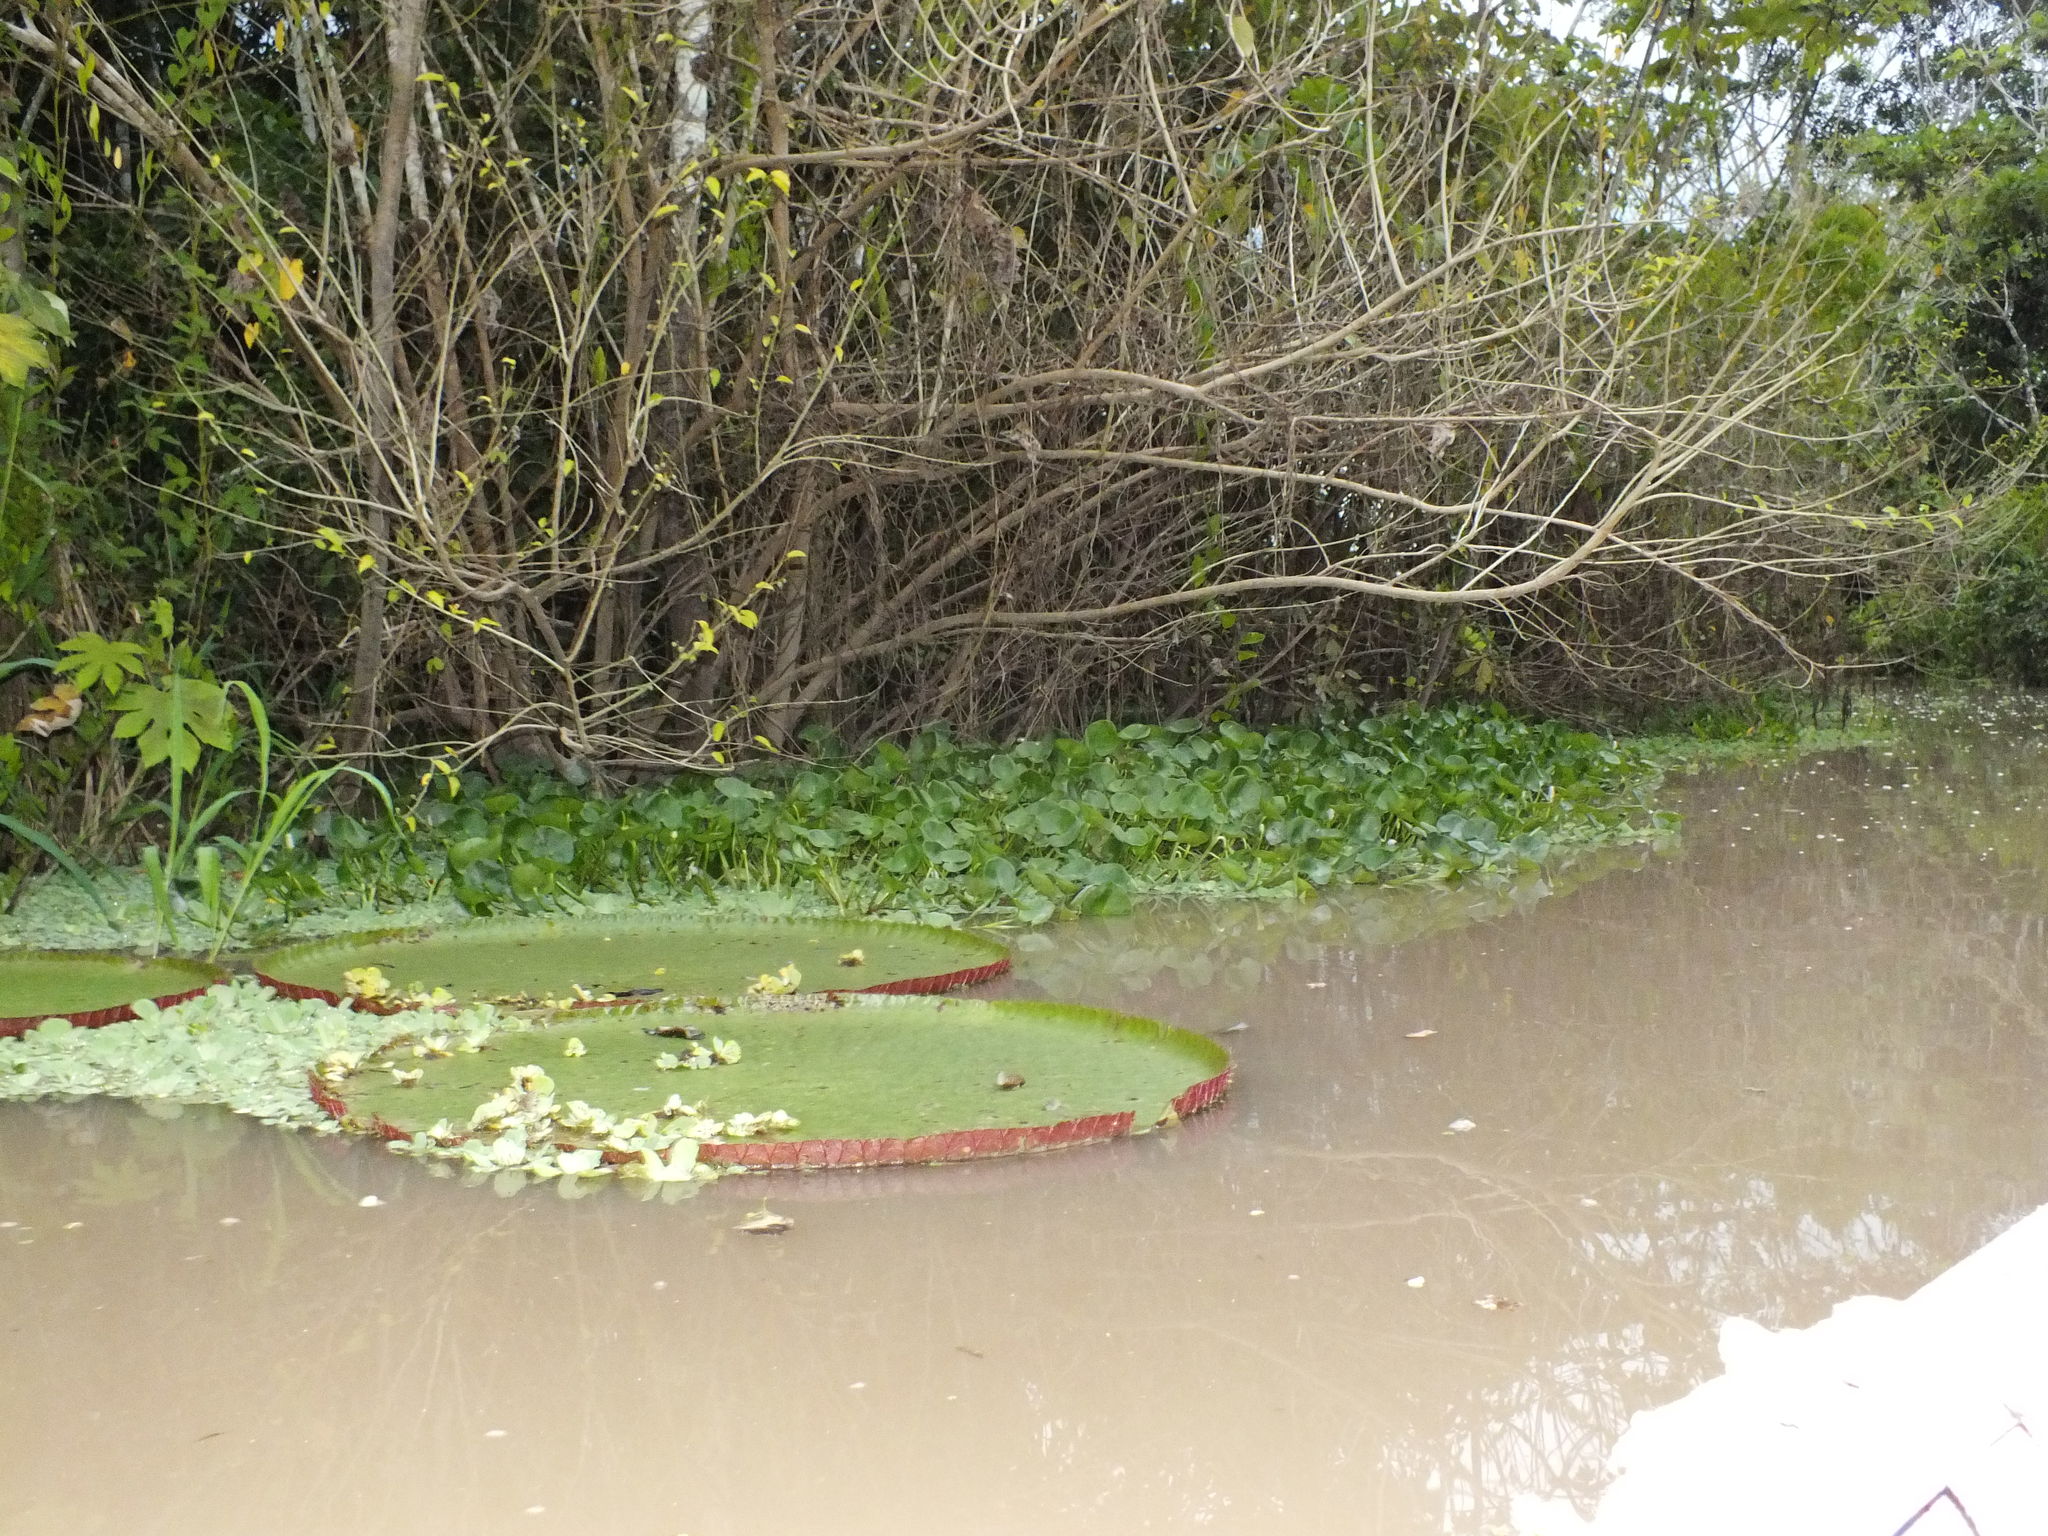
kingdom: Plantae
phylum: Tracheophyta
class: Magnoliopsida
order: Nymphaeales
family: Nymphaeaceae
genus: Victoria
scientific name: Victoria amazonica
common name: Amazon water-lily
